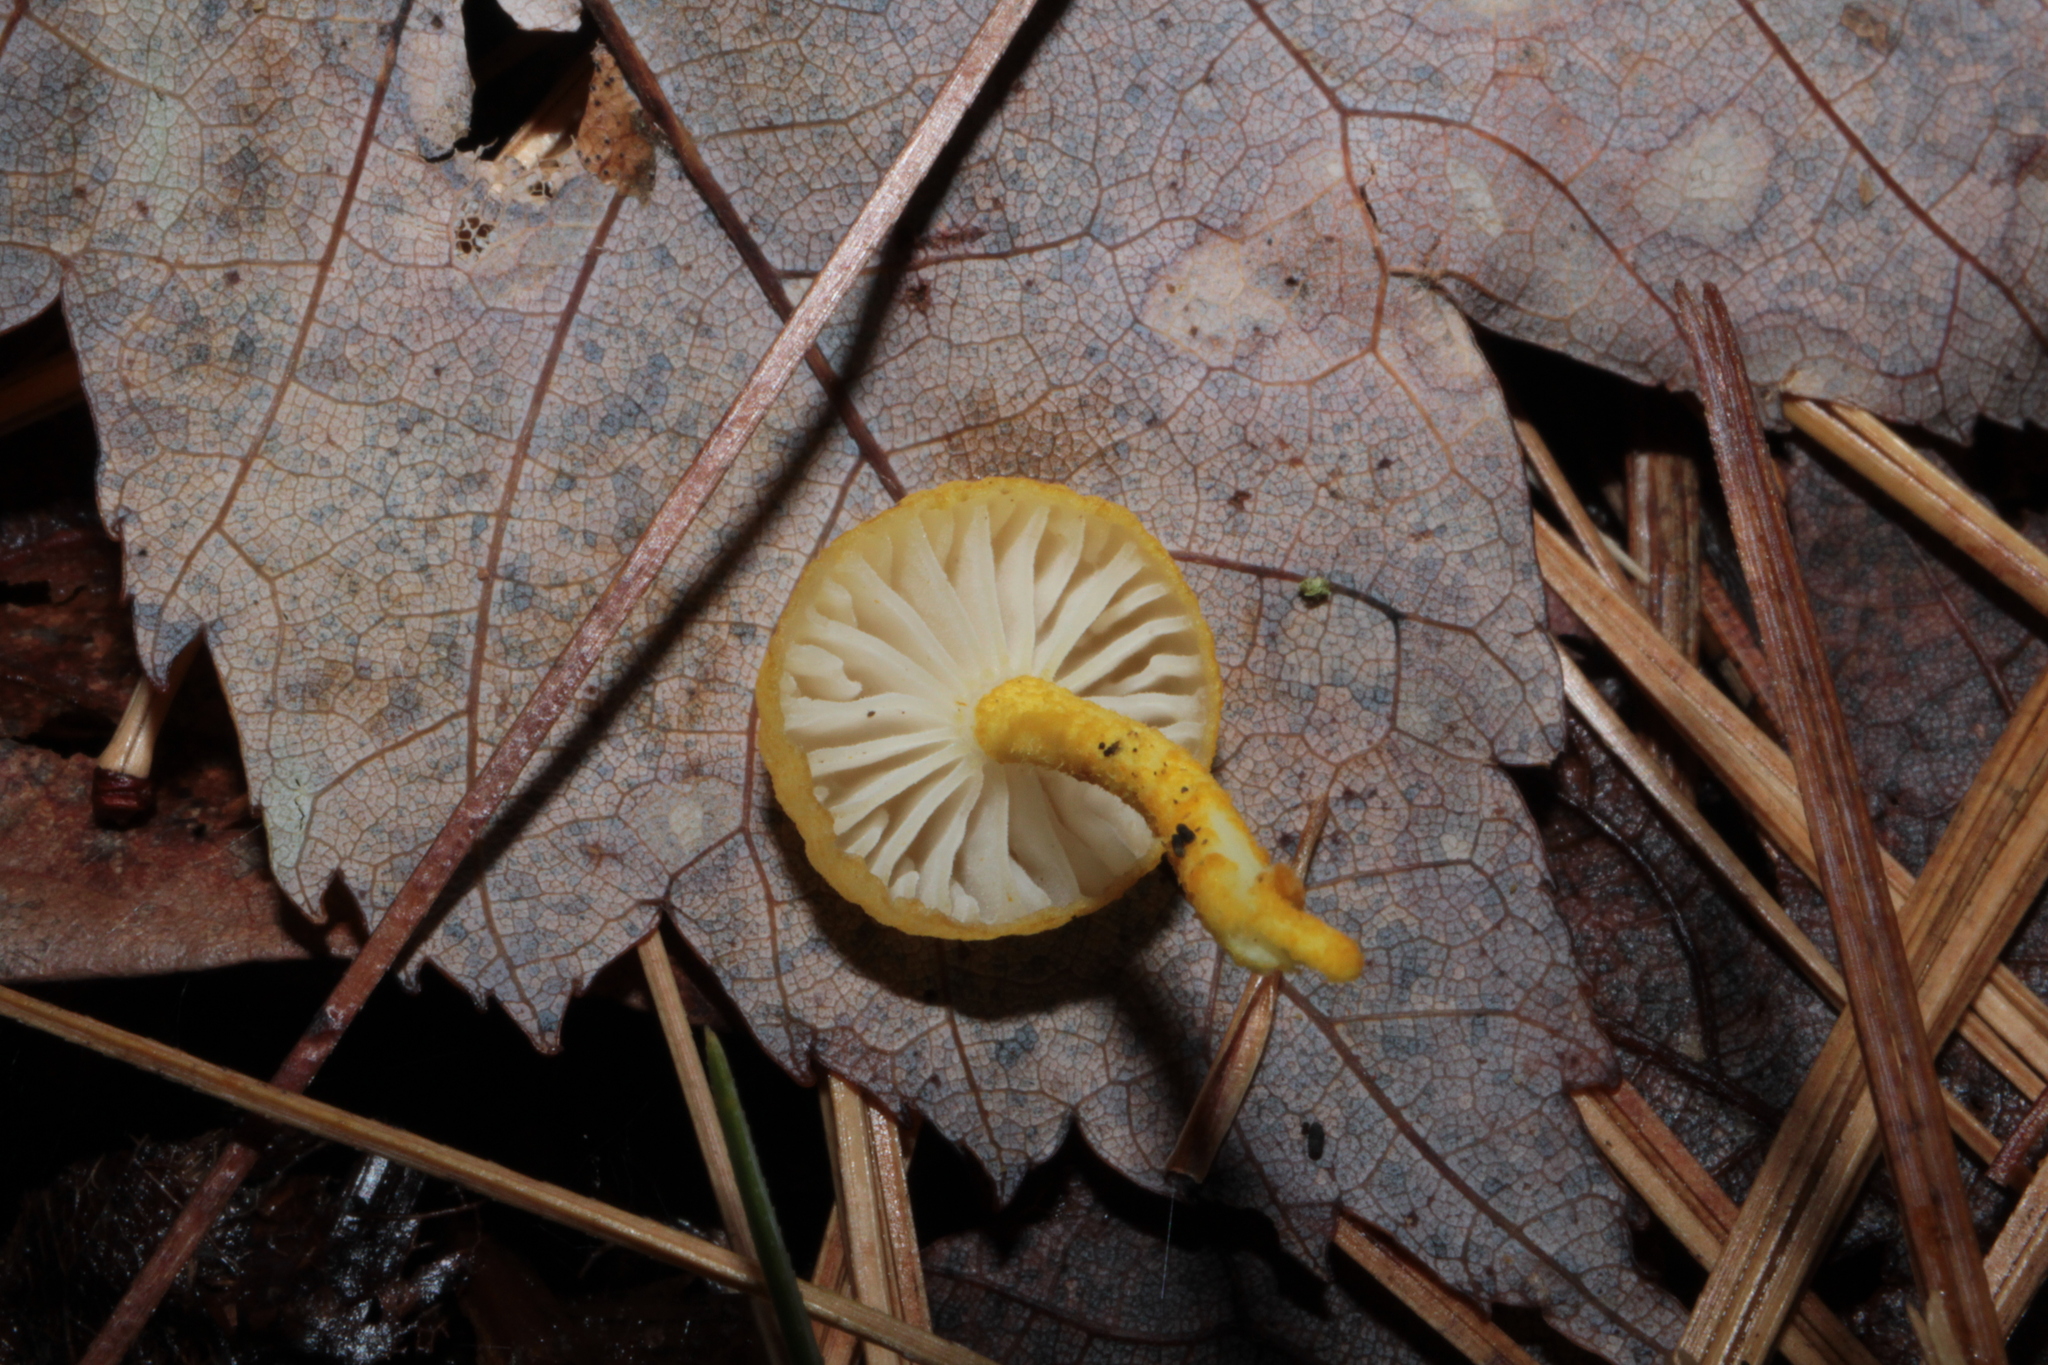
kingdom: Fungi
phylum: Basidiomycota
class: Agaricomycetes
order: Agaricales
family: Physalacriaceae
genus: Cyptotrama
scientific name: Cyptotrama chrysopepla
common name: Golden coincap
